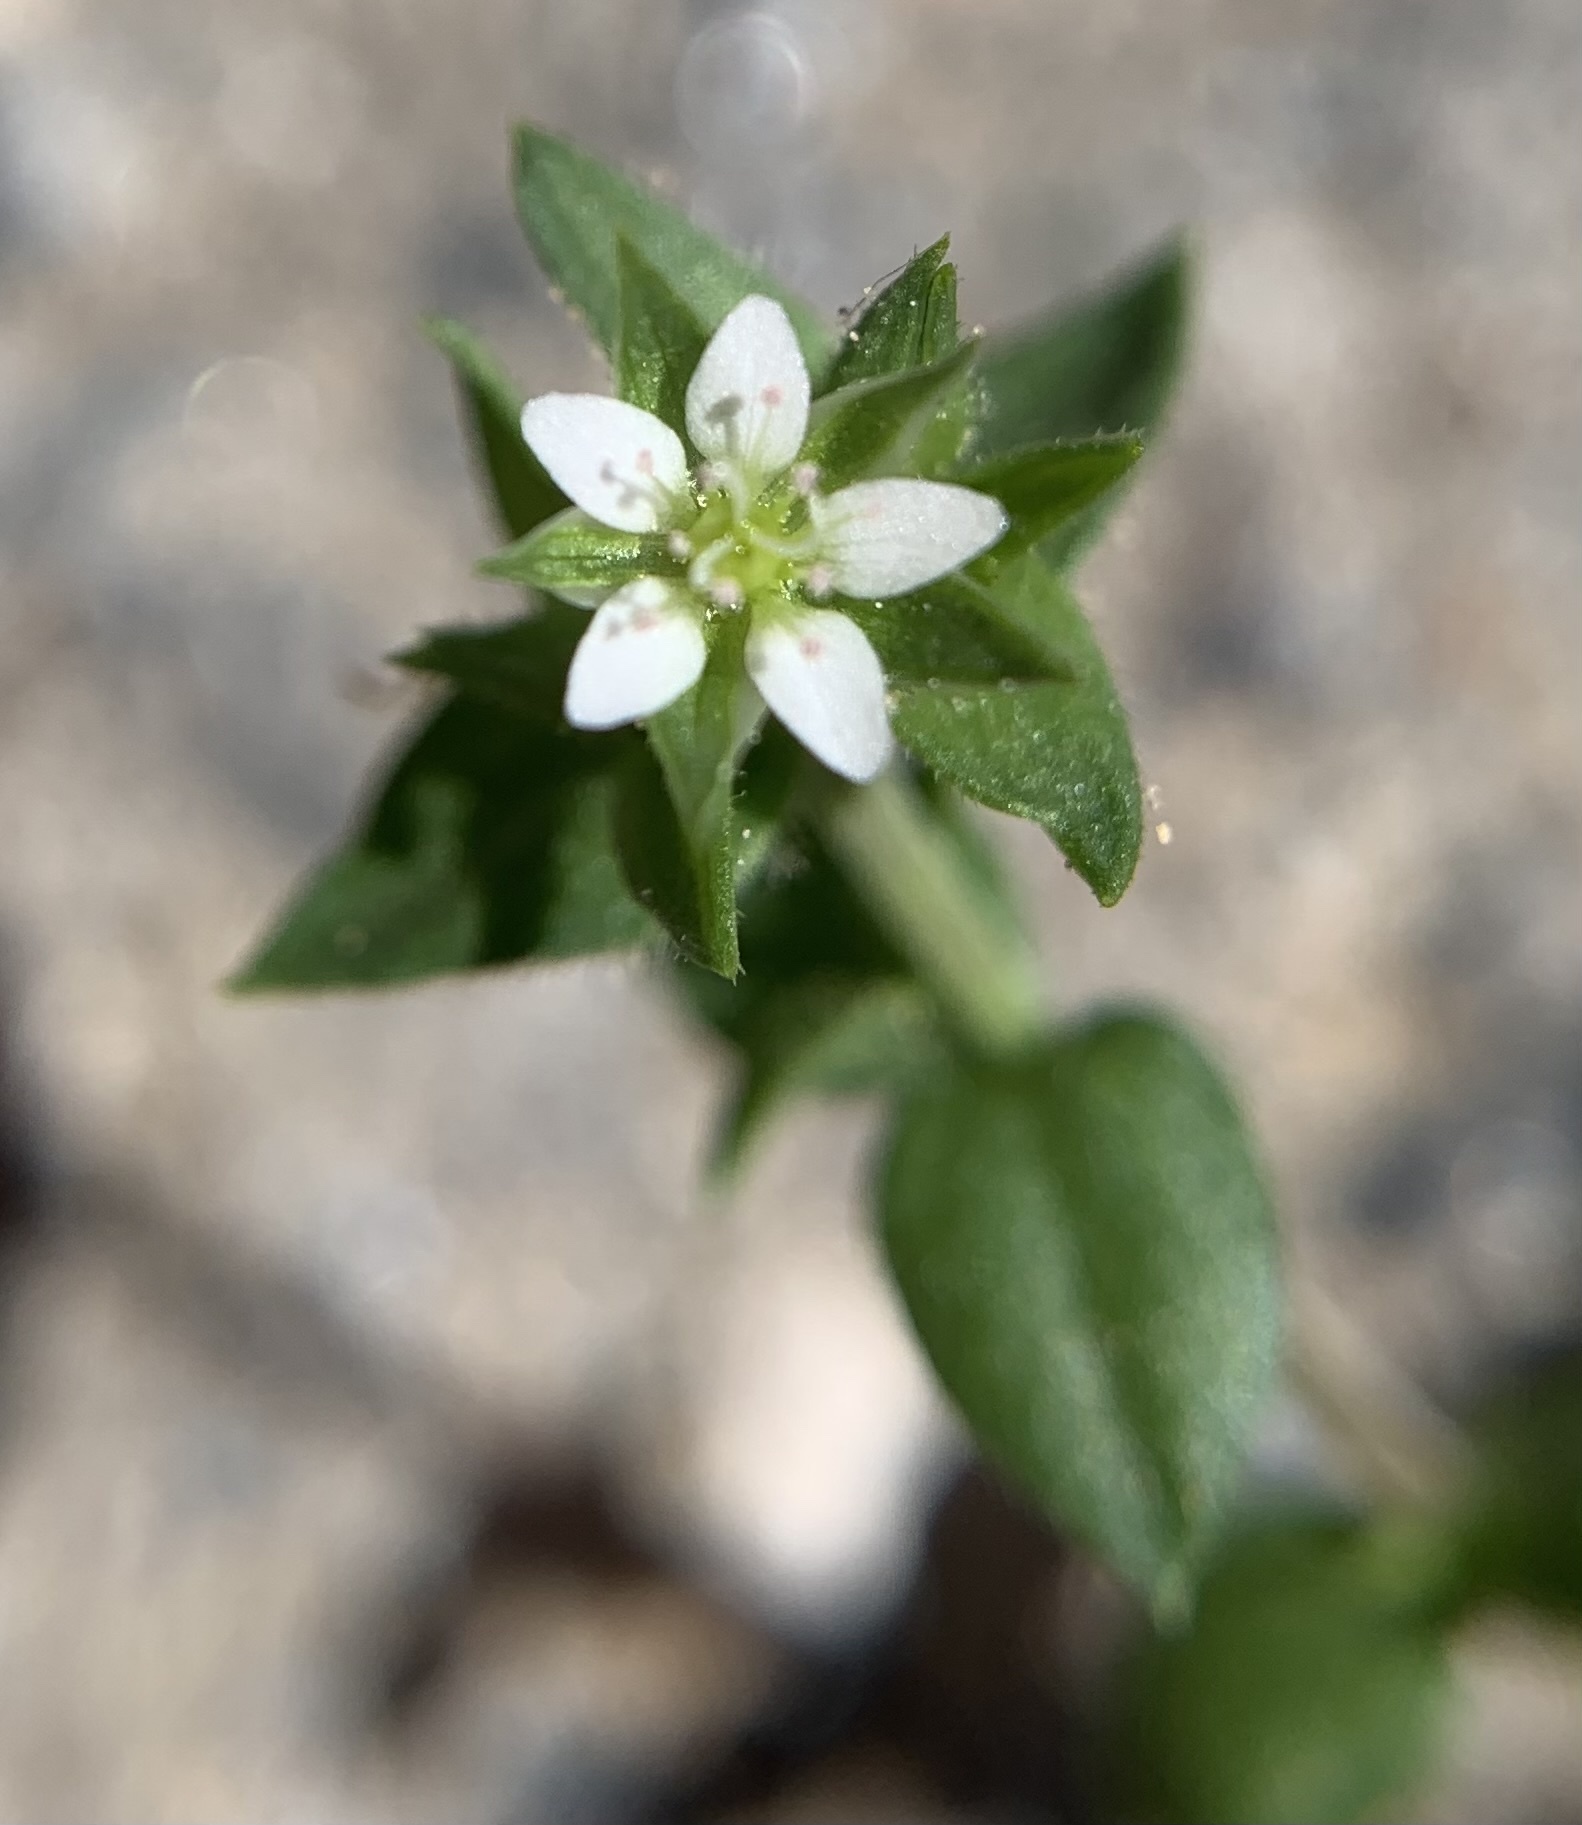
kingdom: Plantae
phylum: Tracheophyta
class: Magnoliopsida
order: Caryophyllales
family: Caryophyllaceae
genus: Arenaria
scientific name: Arenaria serpyllifolia
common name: Thyme-leaved sandwort
